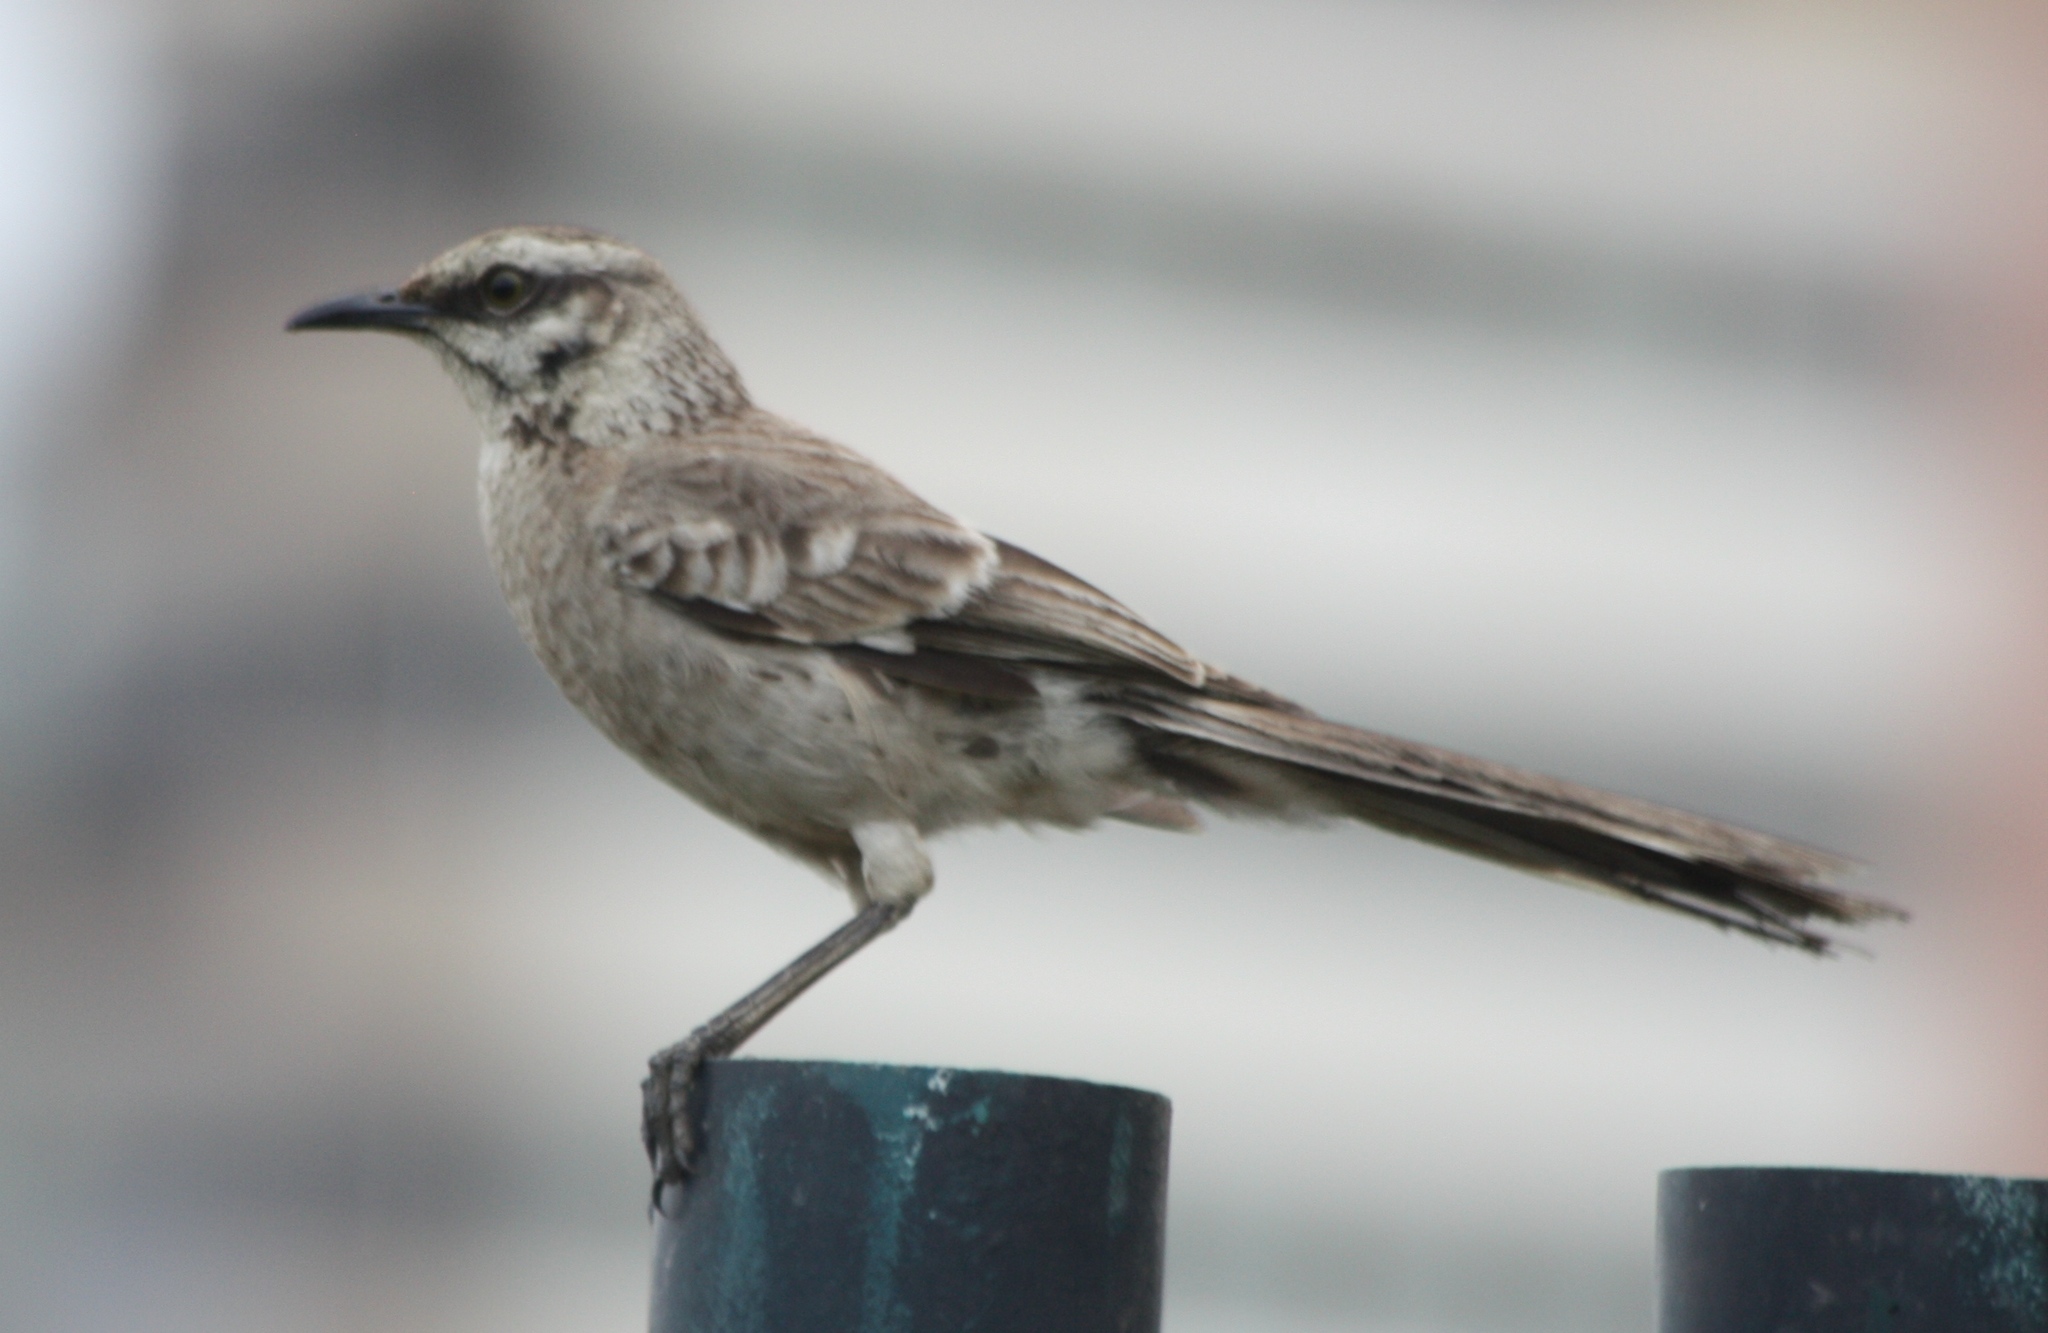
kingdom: Animalia
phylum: Chordata
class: Aves
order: Passeriformes
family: Mimidae
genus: Mimus
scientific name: Mimus longicaudatus
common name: Long-tailed mockingbird
